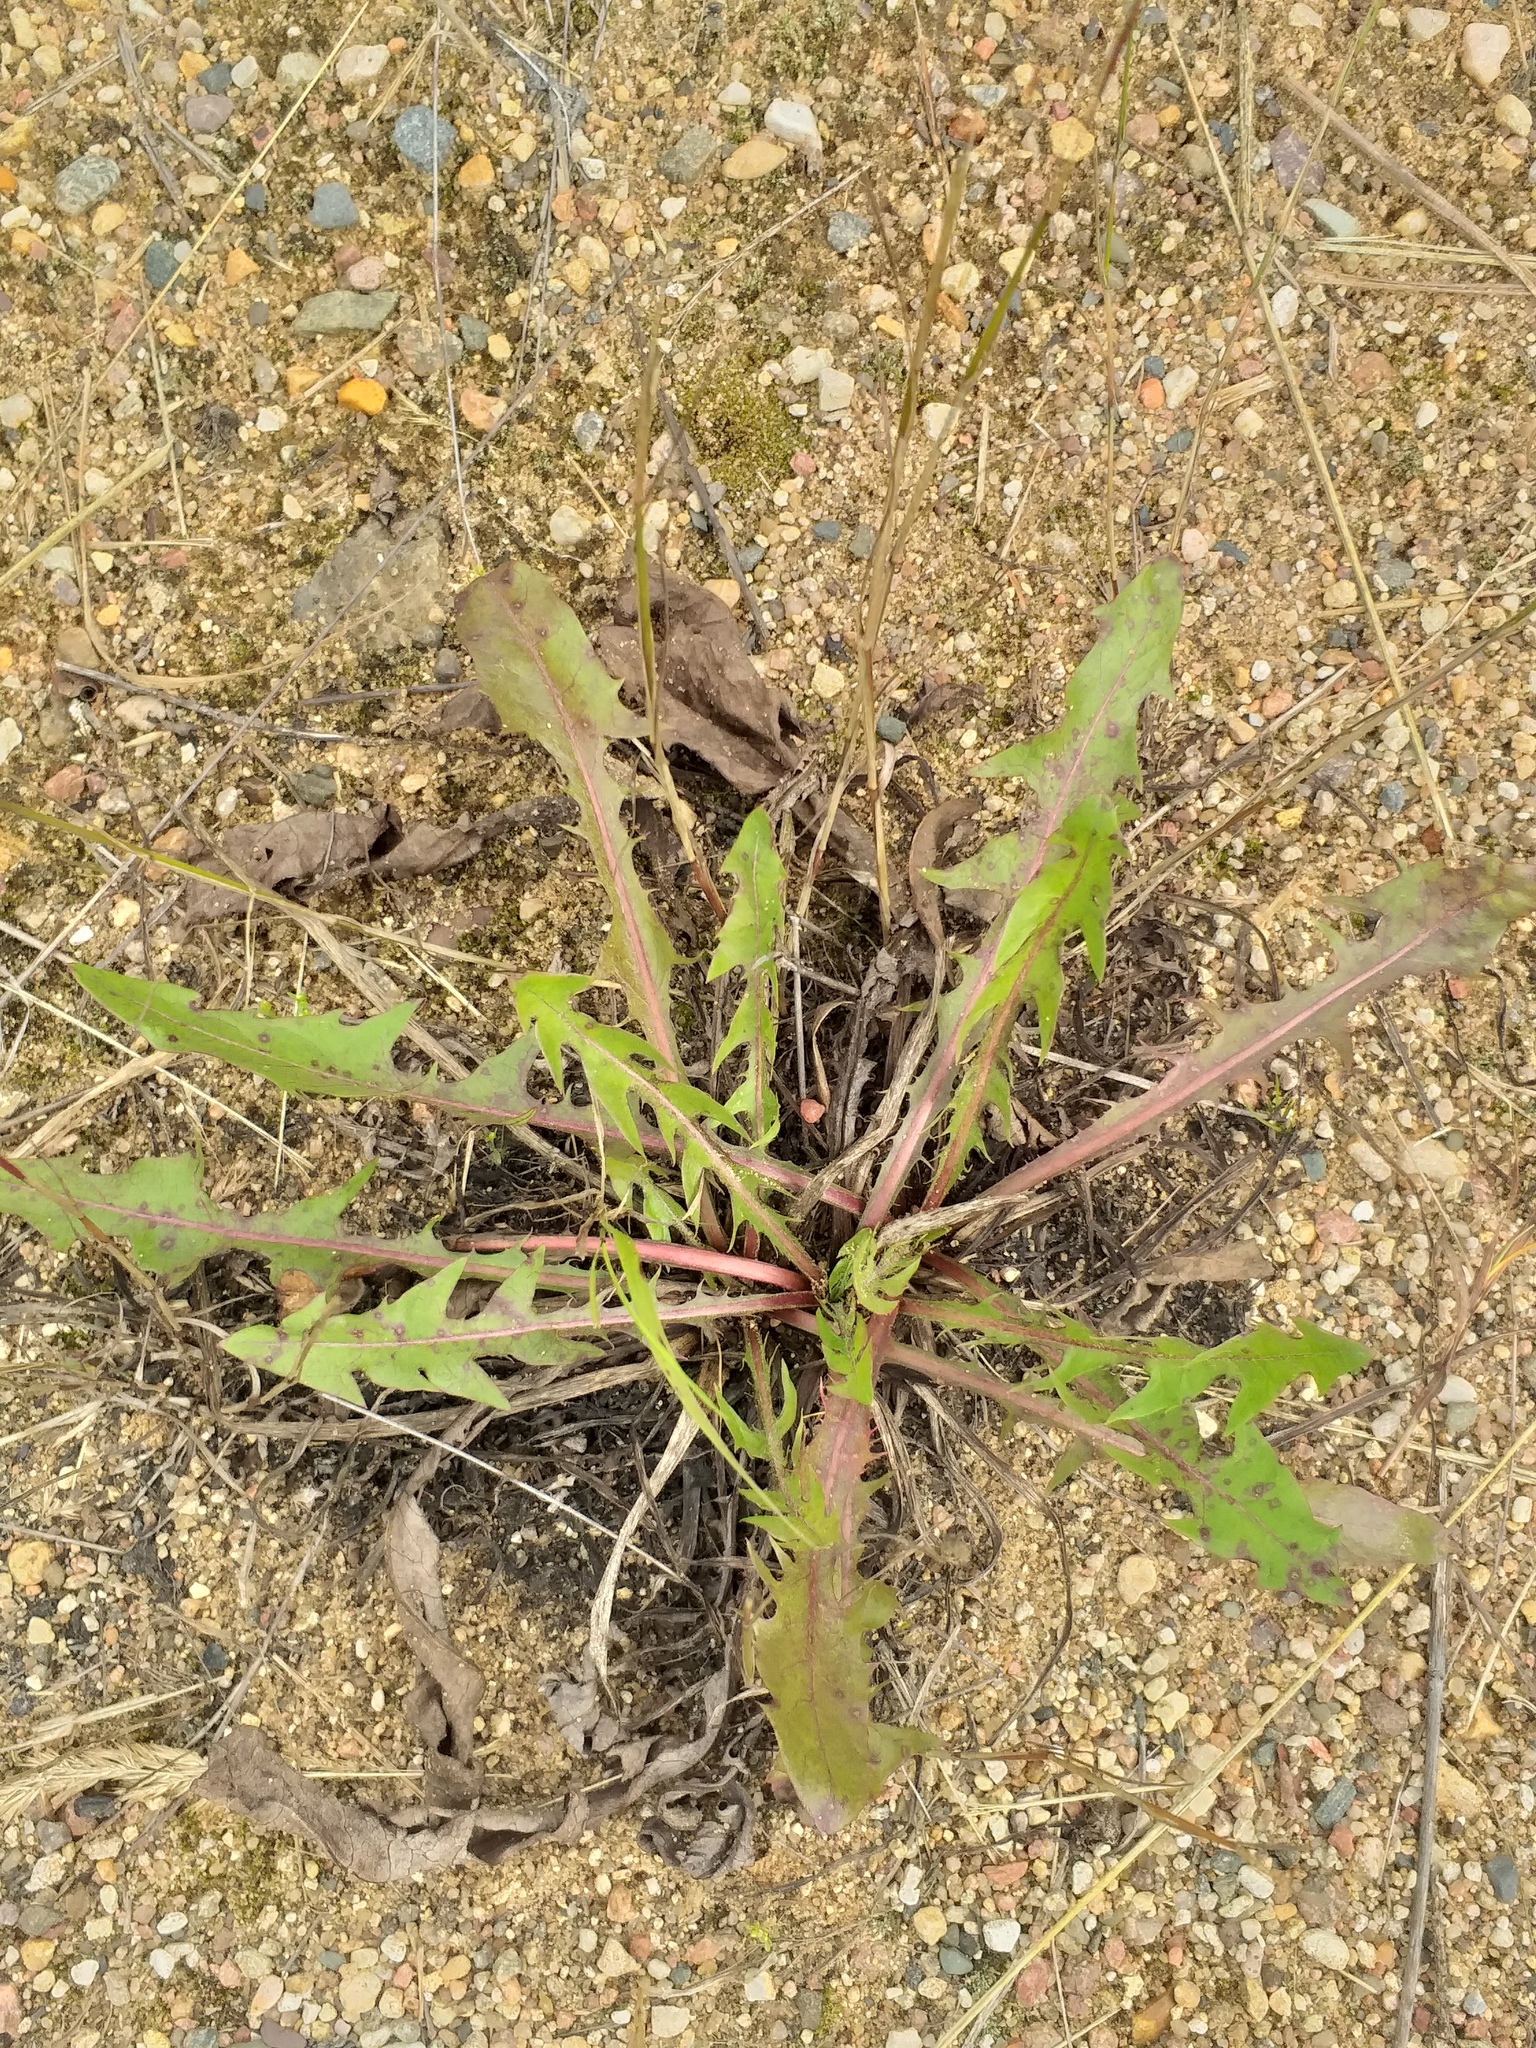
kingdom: Plantae
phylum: Tracheophyta
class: Magnoliopsida
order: Asterales
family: Asteraceae
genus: Taraxacum
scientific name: Taraxacum officinale
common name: Common dandelion
